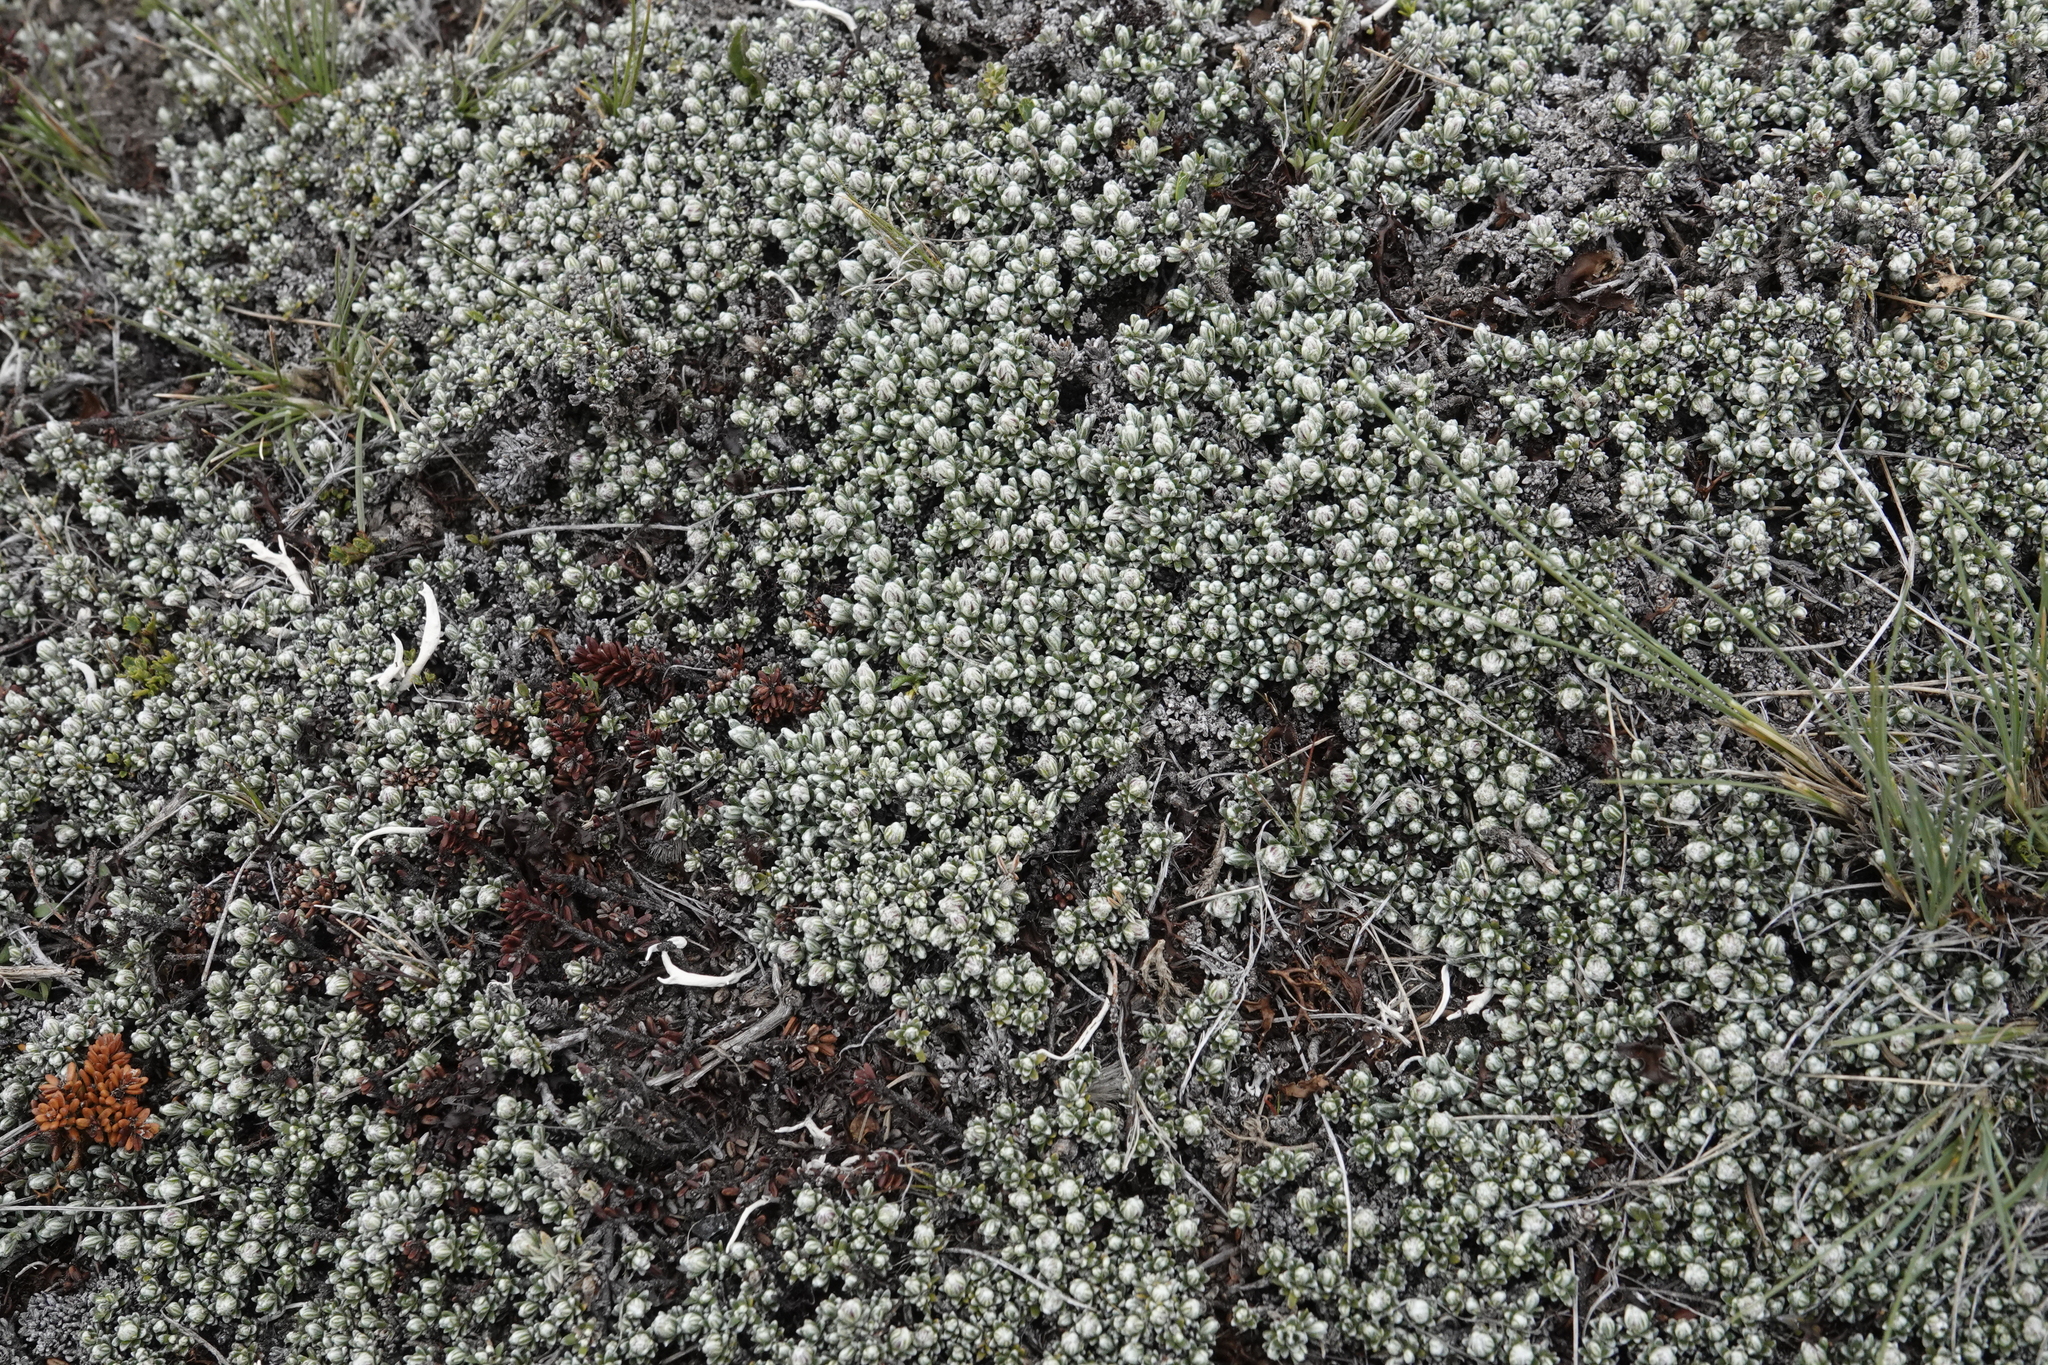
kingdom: Plantae
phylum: Tracheophyta
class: Magnoliopsida
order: Asterales
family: Asteraceae
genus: Nardophyllum
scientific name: Nardophyllum bryoides
